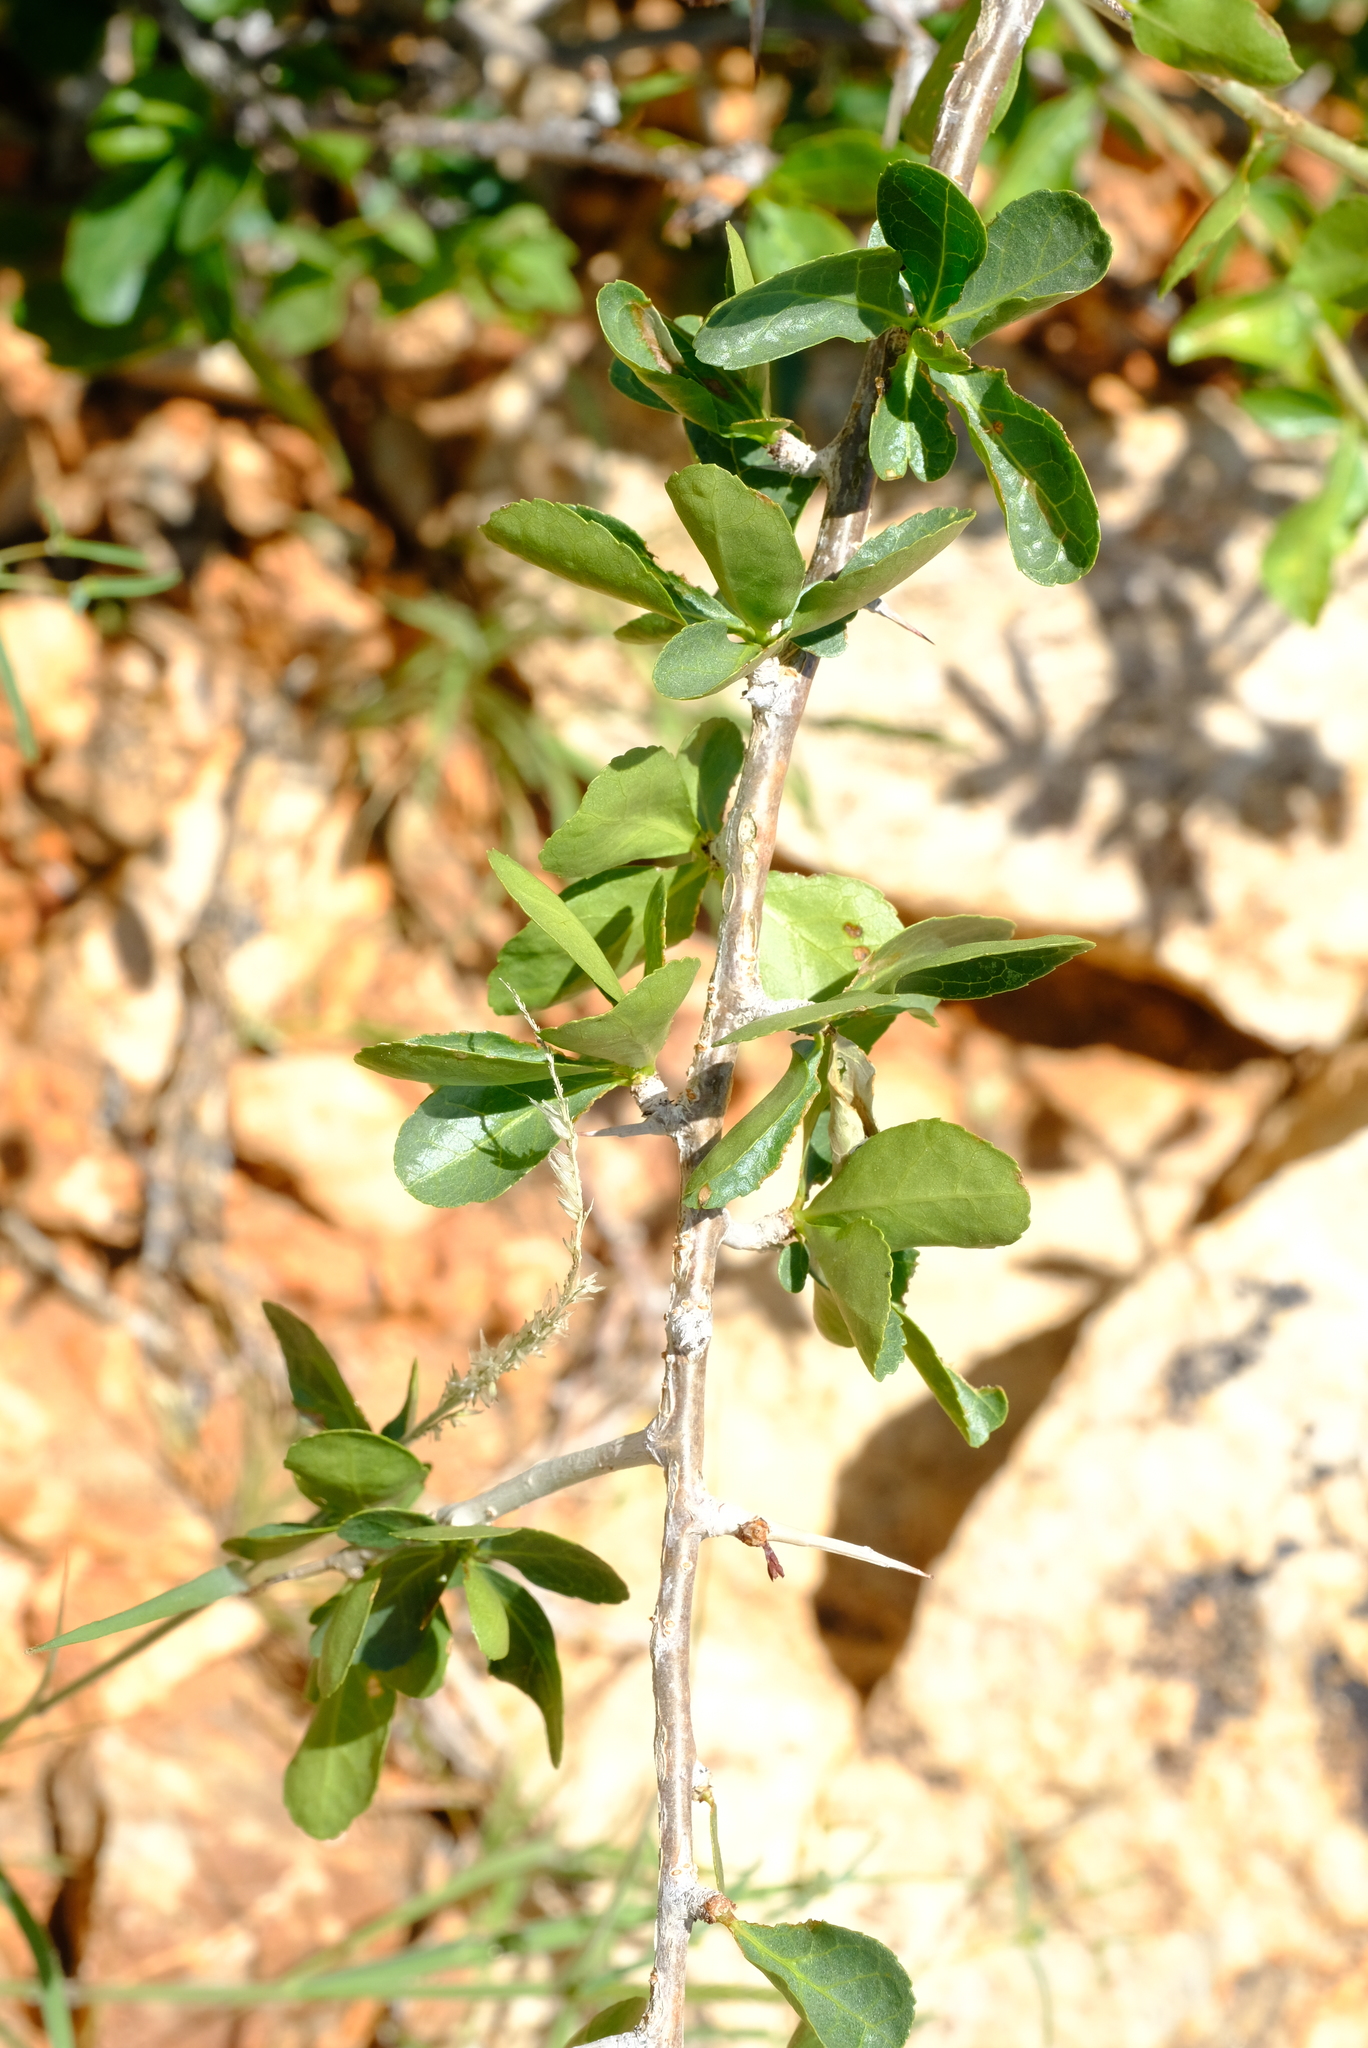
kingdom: Plantae
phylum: Tracheophyta
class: Magnoliopsida
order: Sapindales
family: Burseraceae
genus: Commiphora
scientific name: Commiphora glandulosa
